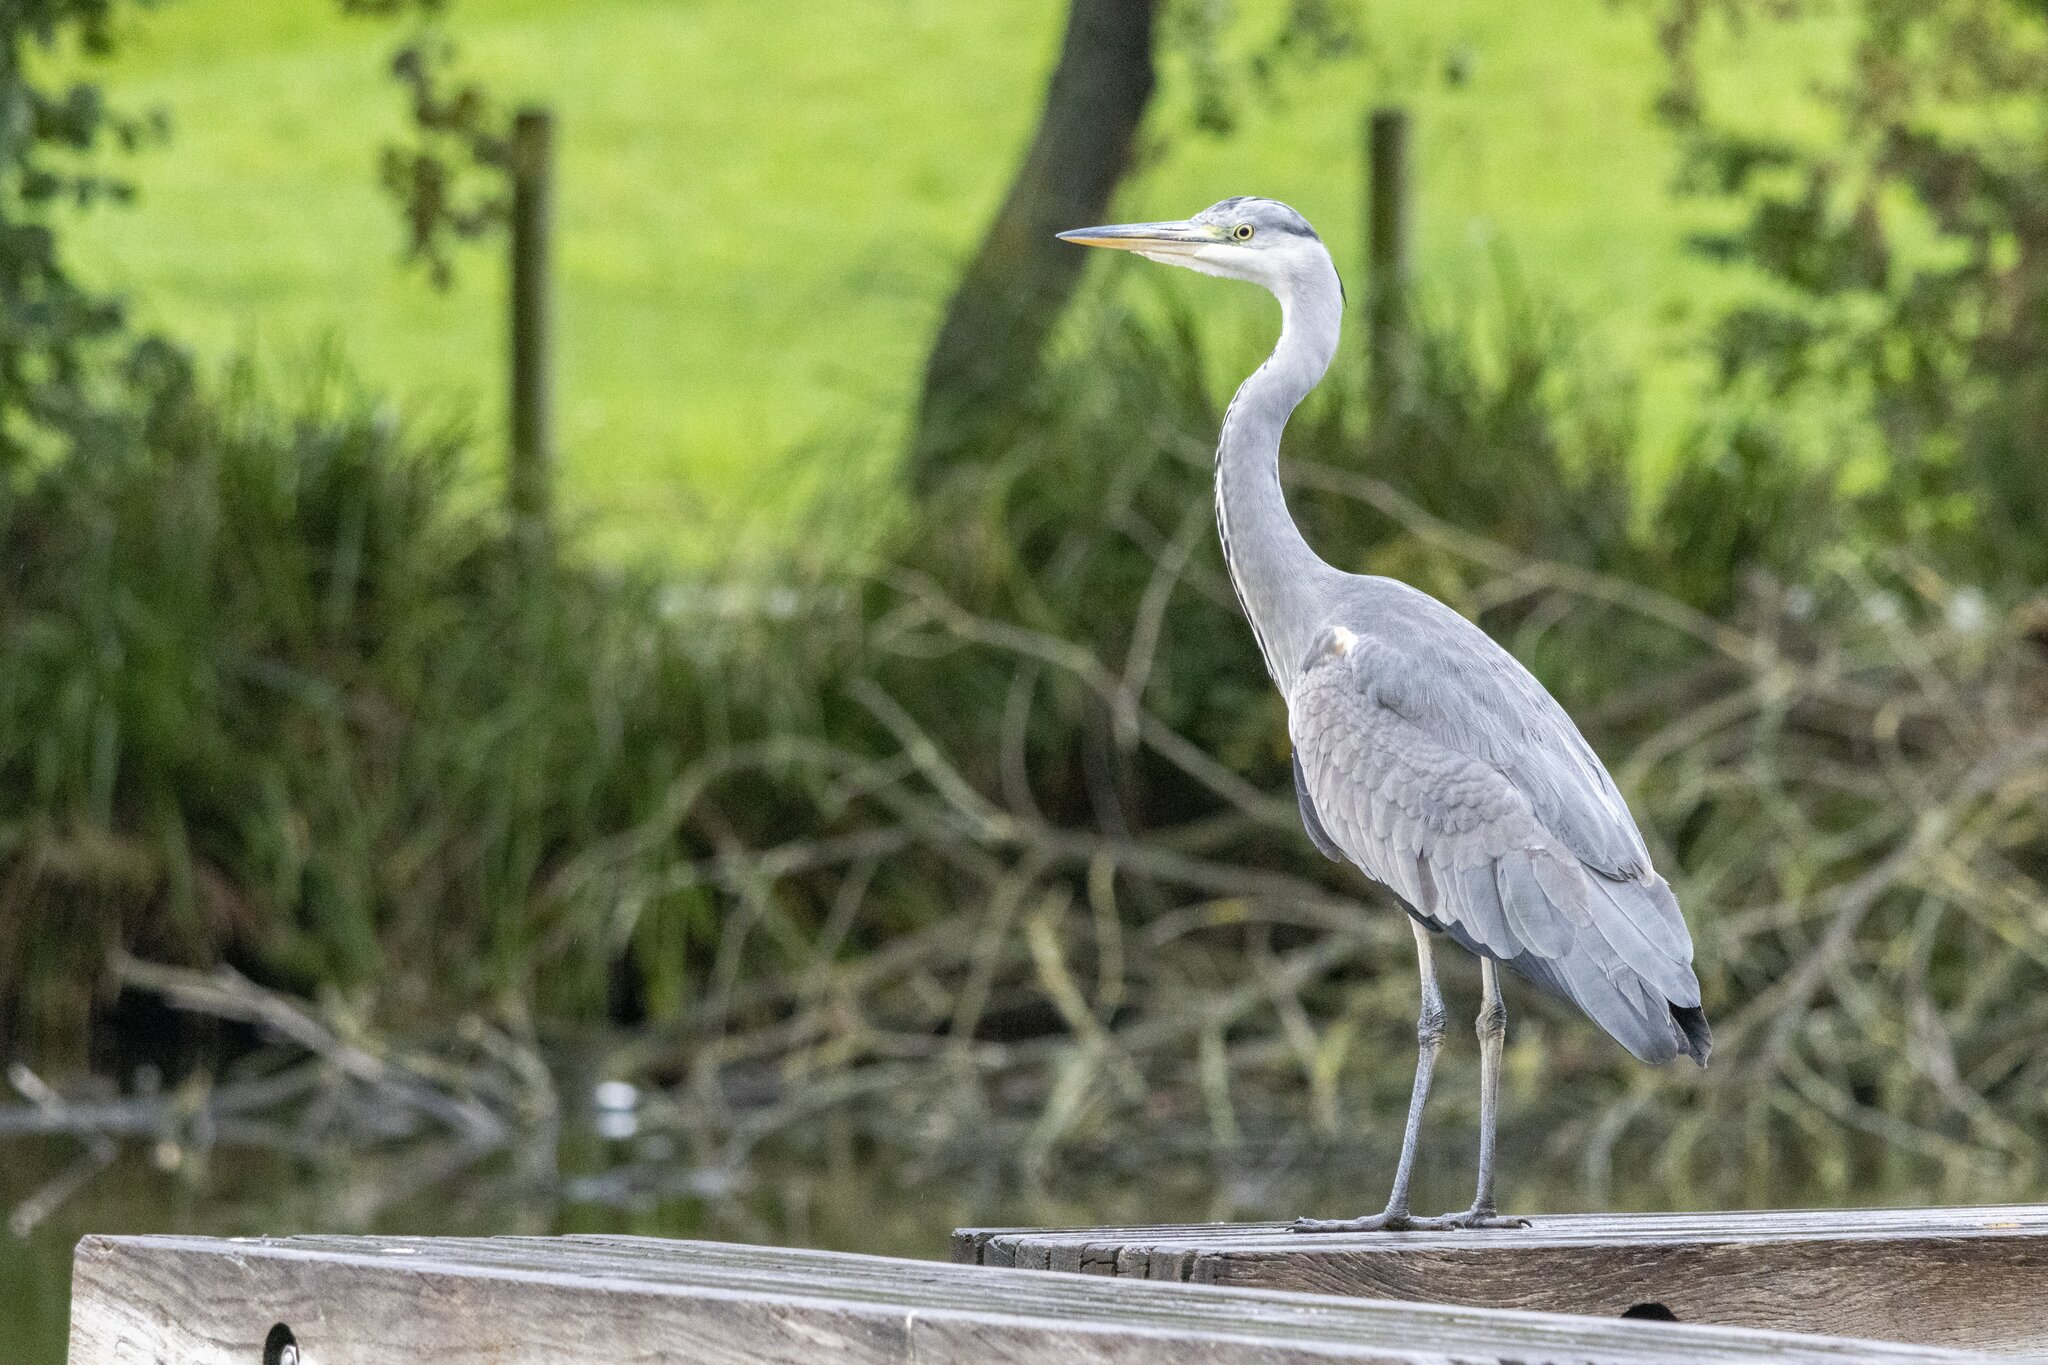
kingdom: Animalia
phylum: Chordata
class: Aves
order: Pelecaniformes
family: Ardeidae
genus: Ardea
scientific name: Ardea cinerea
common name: Grey heron
